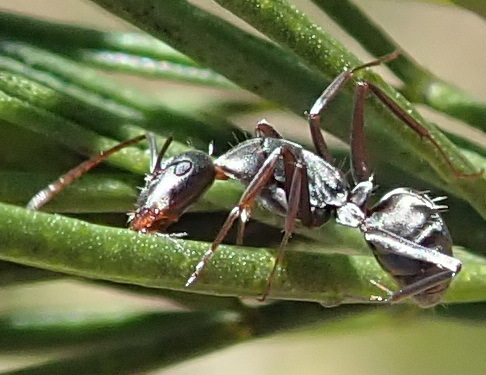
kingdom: Animalia
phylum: Arthropoda
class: Insecta
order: Hymenoptera
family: Formicidae
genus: Camponotus
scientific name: Camponotus vestitus
